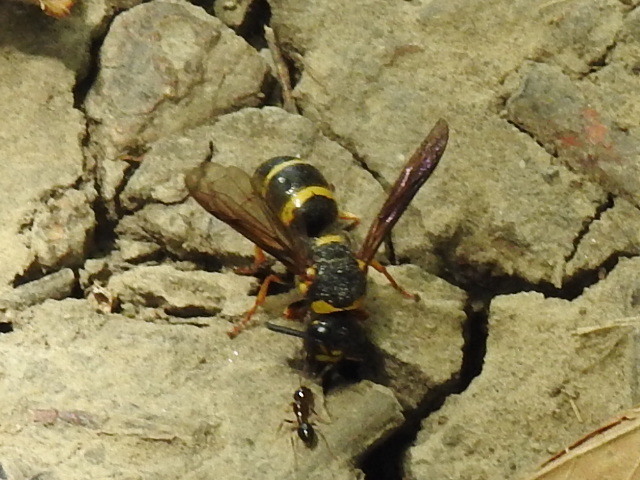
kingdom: Animalia
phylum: Arthropoda
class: Insecta
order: Hymenoptera
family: Eumenidae
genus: Euodynerus
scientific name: Euodynerus foraminatus
